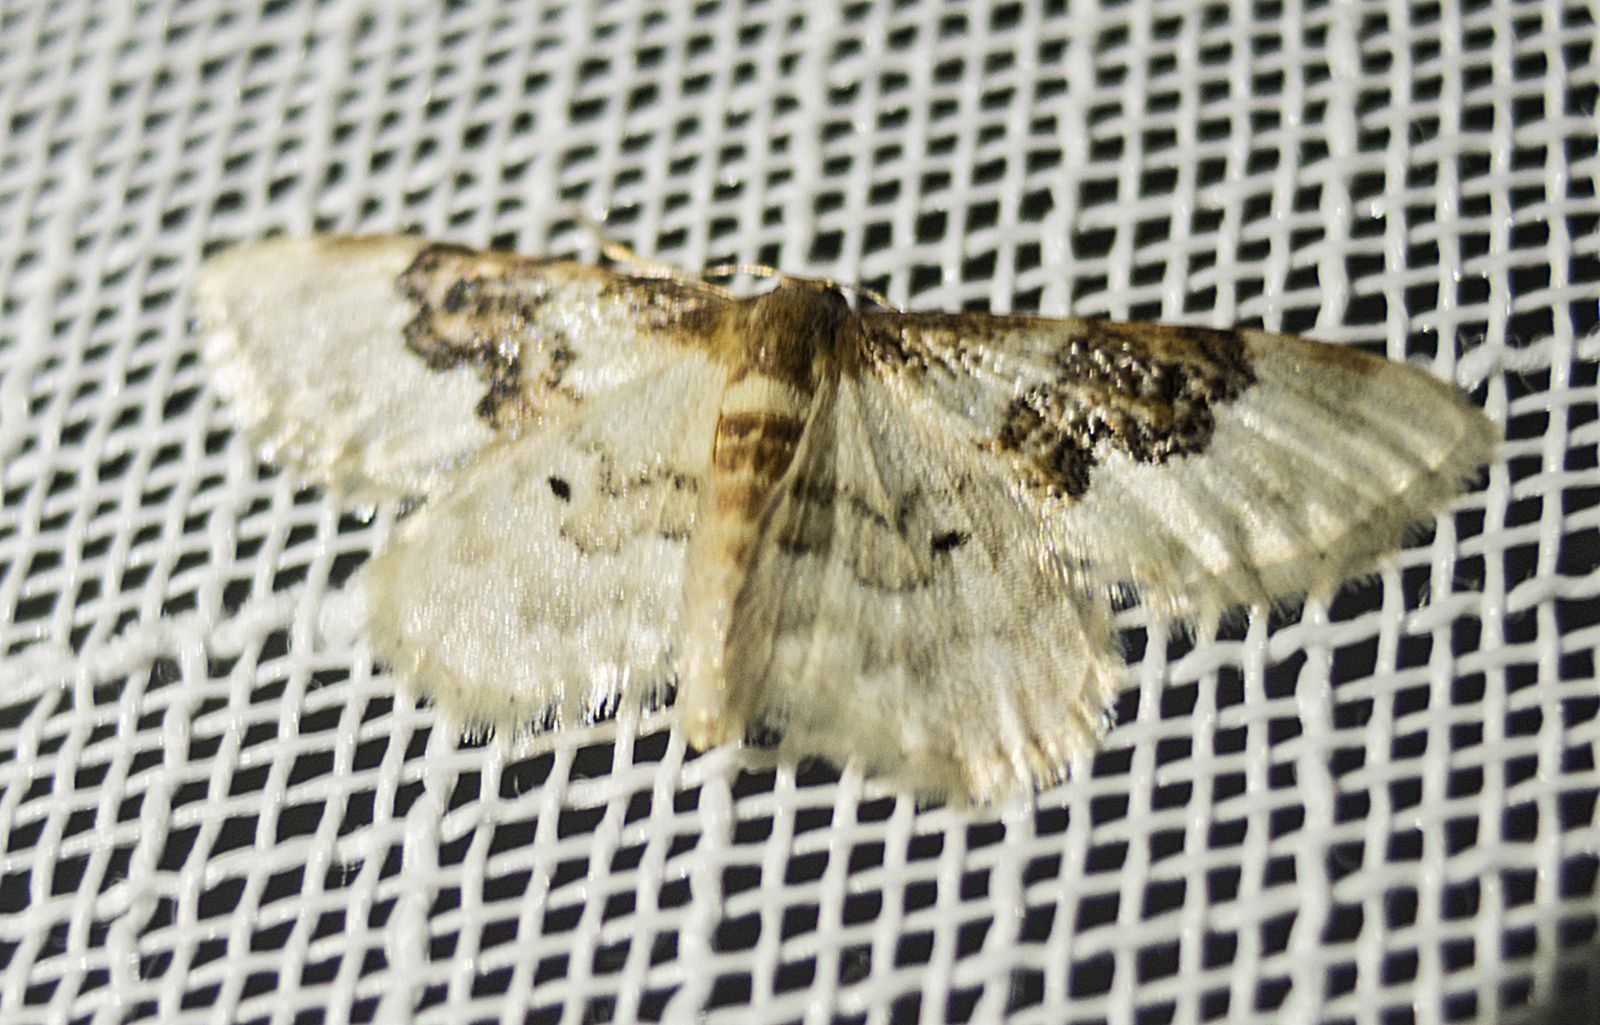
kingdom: Animalia
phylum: Arthropoda
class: Insecta
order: Lepidoptera
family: Geometridae
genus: Idaea
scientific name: Idaea rusticata
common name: Least carpet
